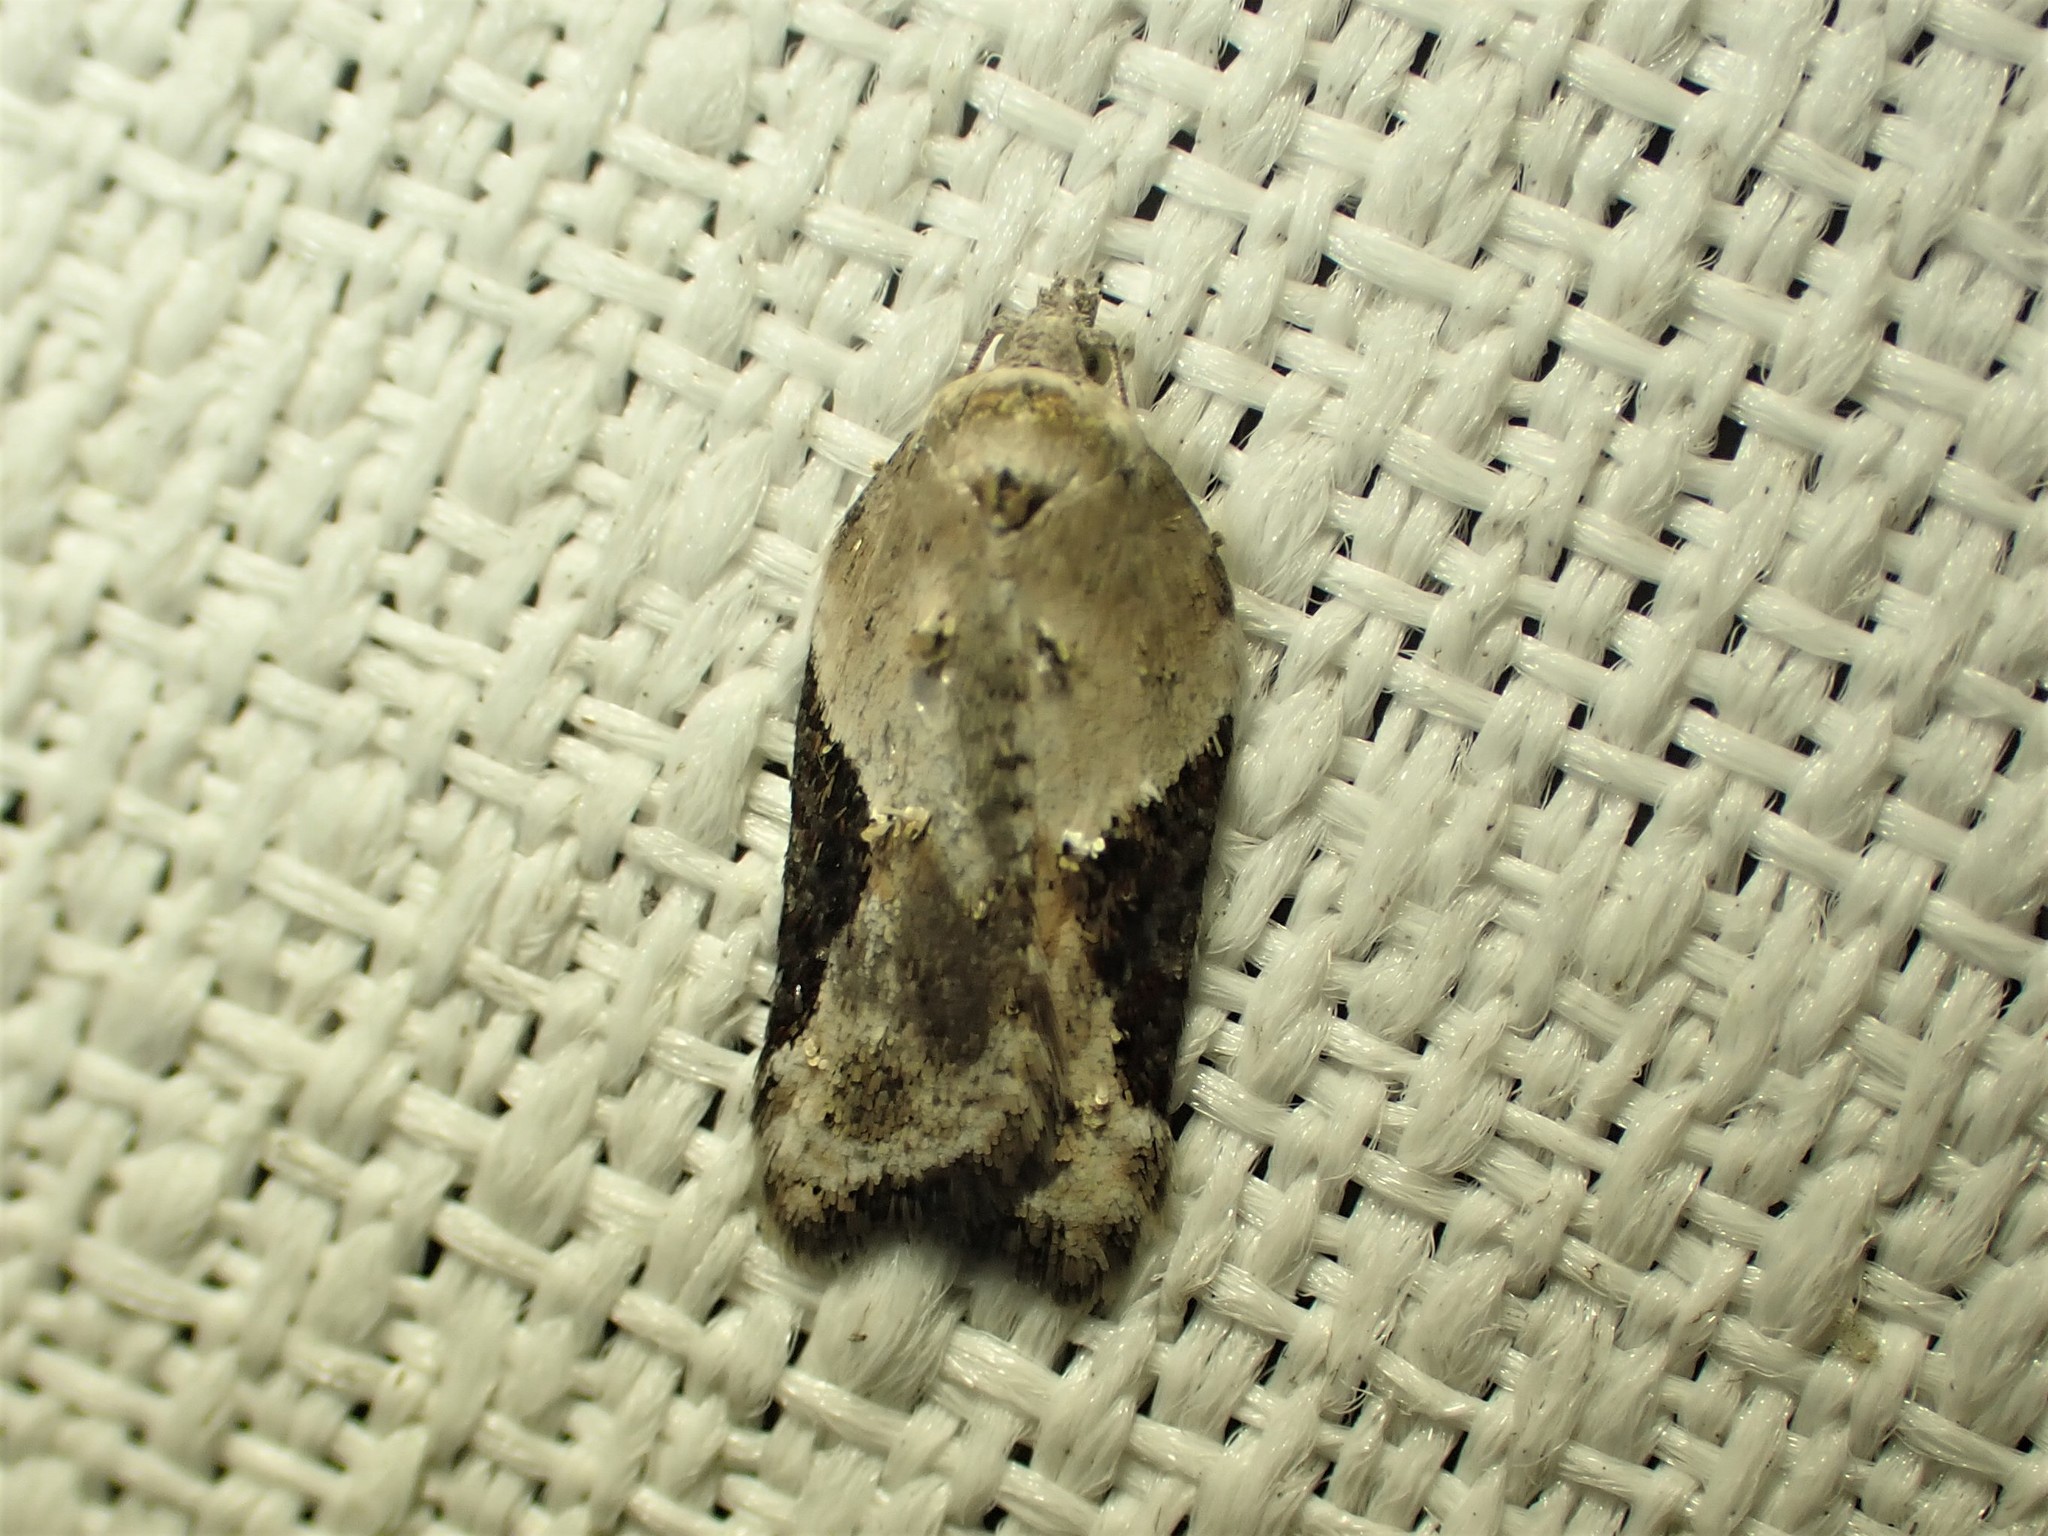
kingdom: Animalia
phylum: Arthropoda
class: Insecta
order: Lepidoptera
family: Tortricidae
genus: Acleris
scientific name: Acleris forbesana
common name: Forbes' acleris moth
